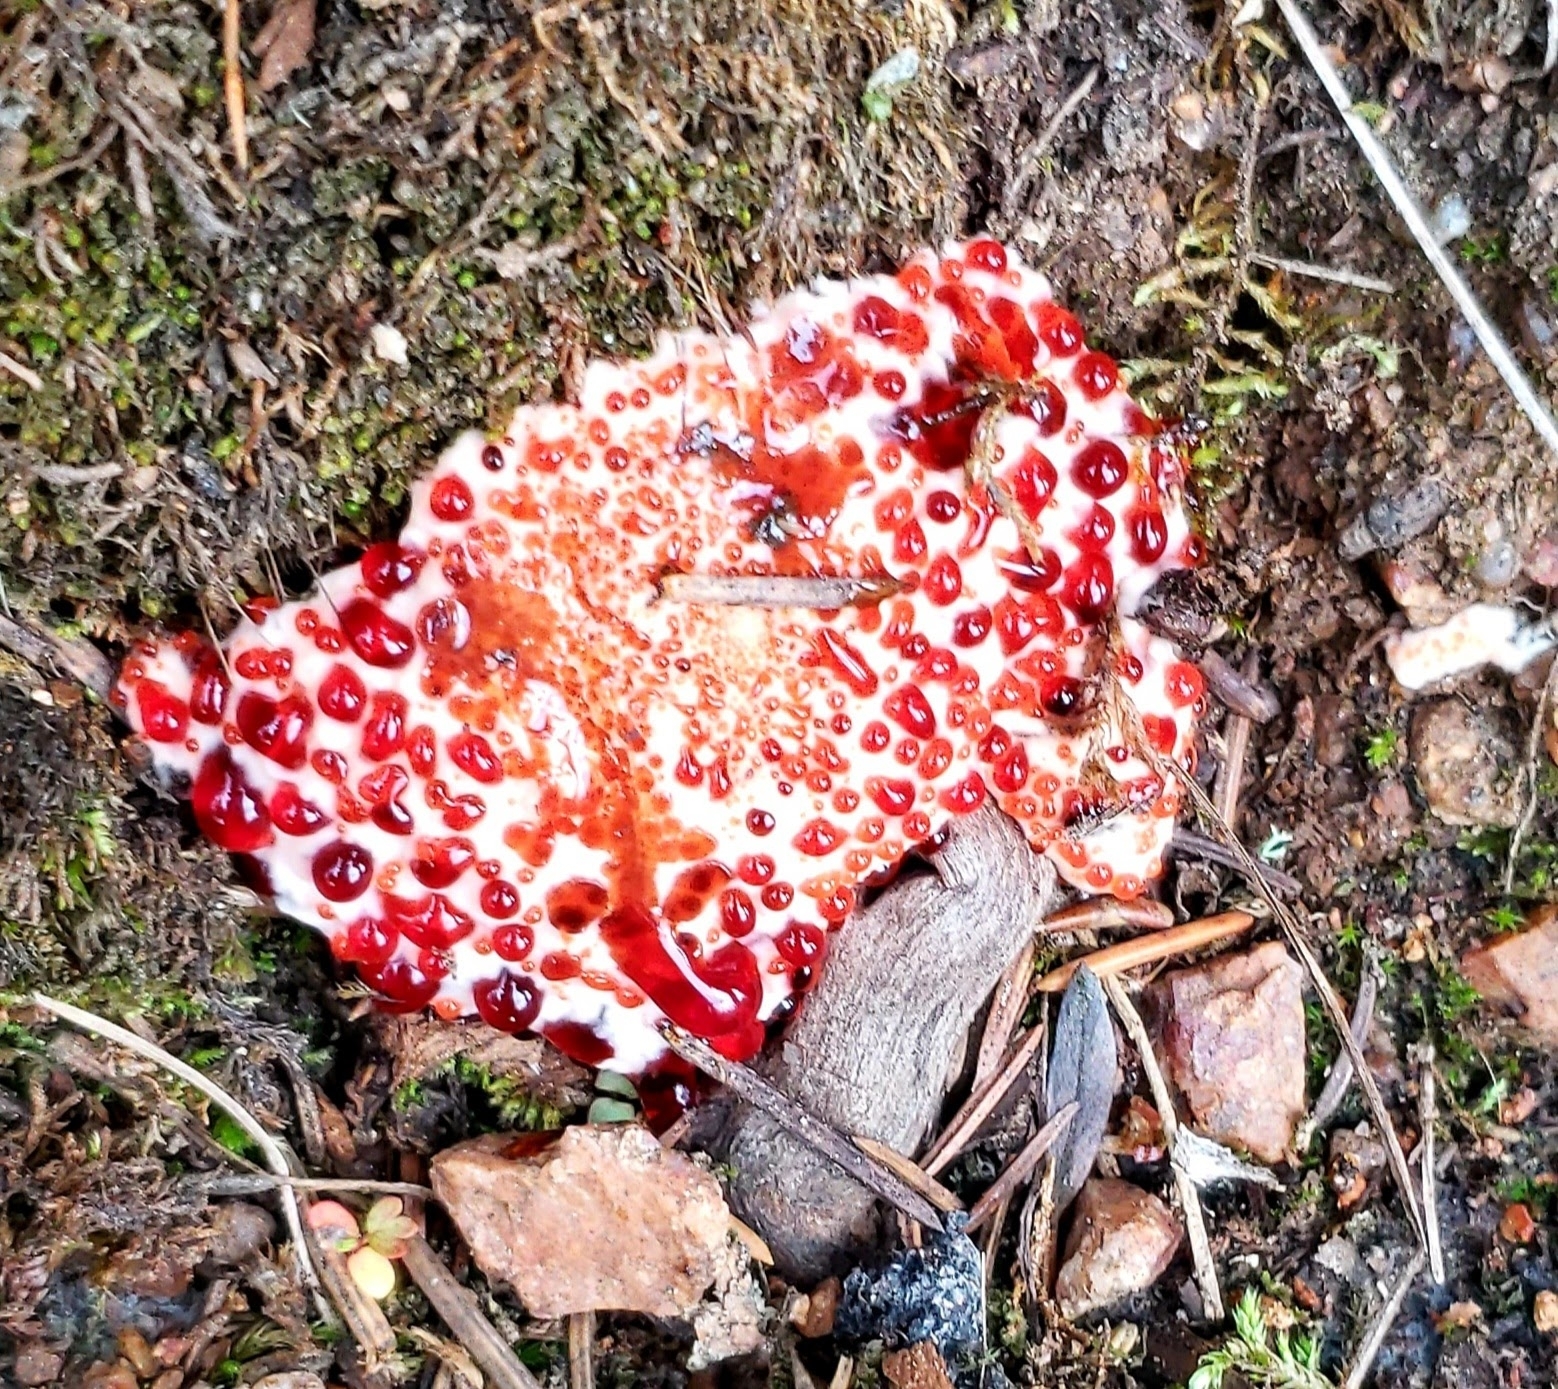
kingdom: Fungi
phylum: Basidiomycota
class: Agaricomycetes
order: Thelephorales
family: Bankeraceae
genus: Hydnellum
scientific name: Hydnellum peckii
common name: Devil's tooth
